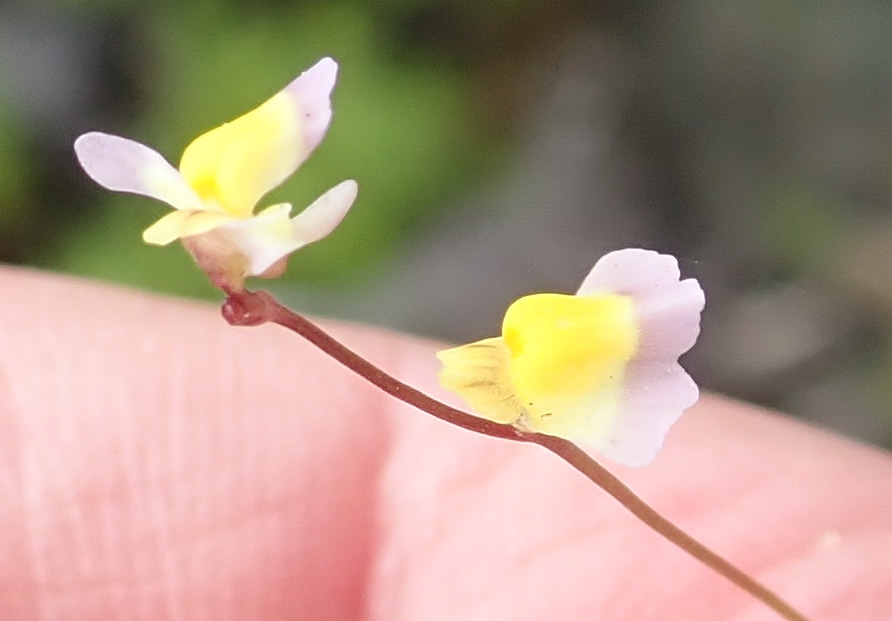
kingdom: Plantae
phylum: Tracheophyta
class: Magnoliopsida
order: Lamiales
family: Lentibulariaceae
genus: Utricularia
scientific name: Utricularia bisquamata
